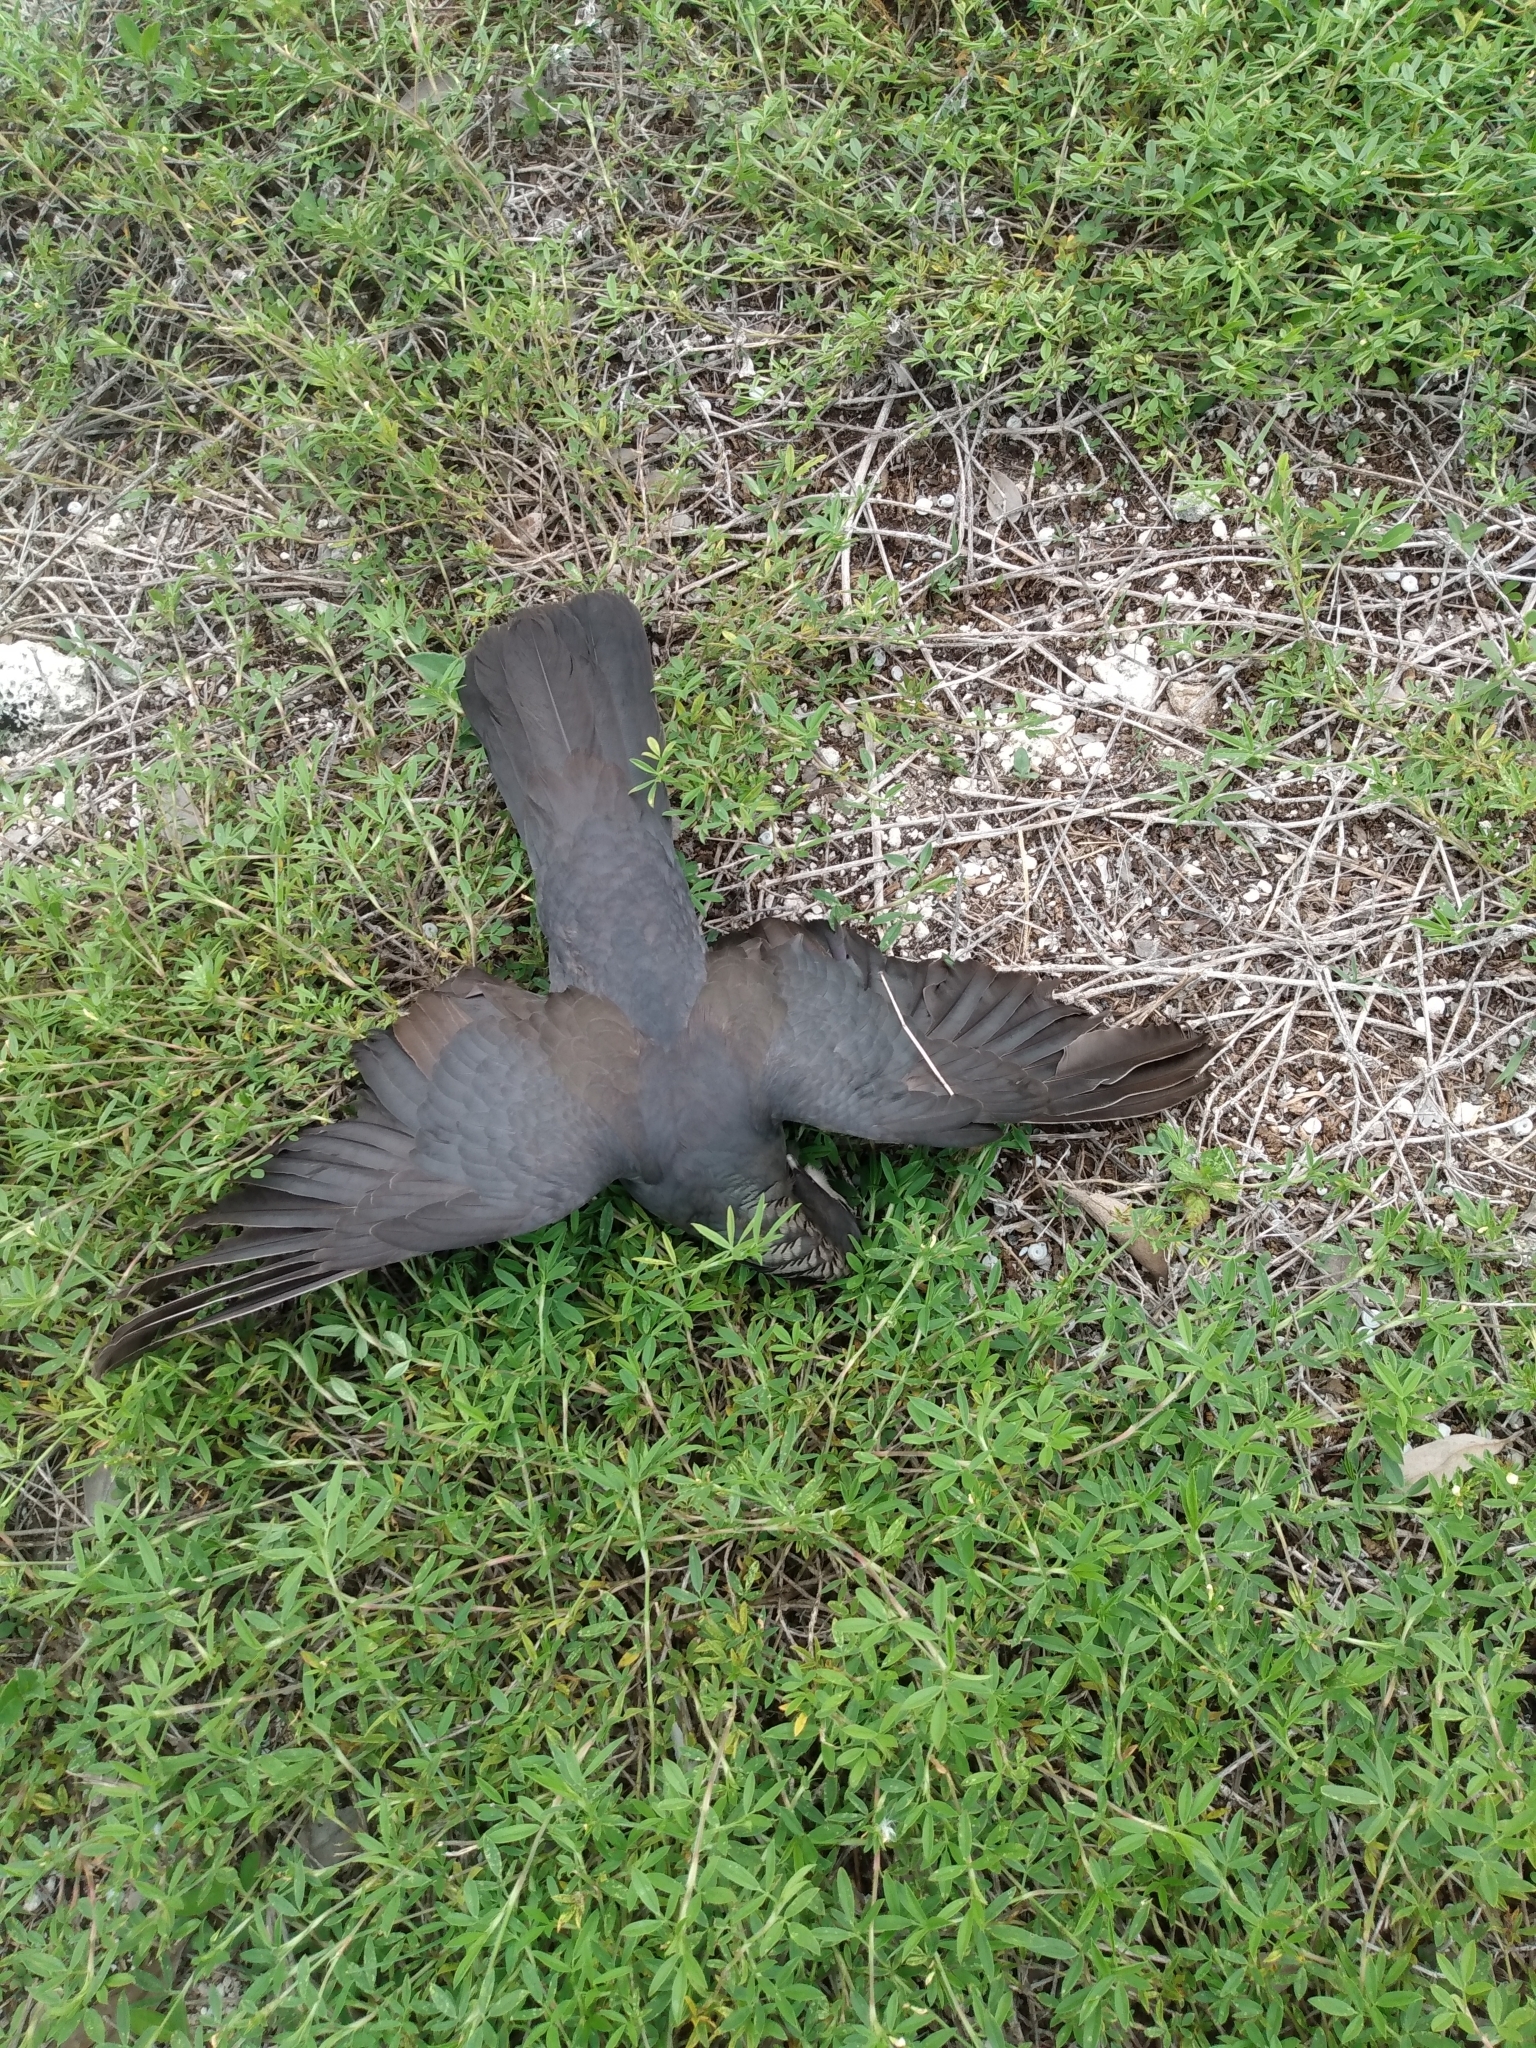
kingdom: Animalia
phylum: Chordata
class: Aves
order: Columbiformes
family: Columbidae
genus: Patagioenas
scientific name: Patagioenas leucocephala
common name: White-crowned pigeon
